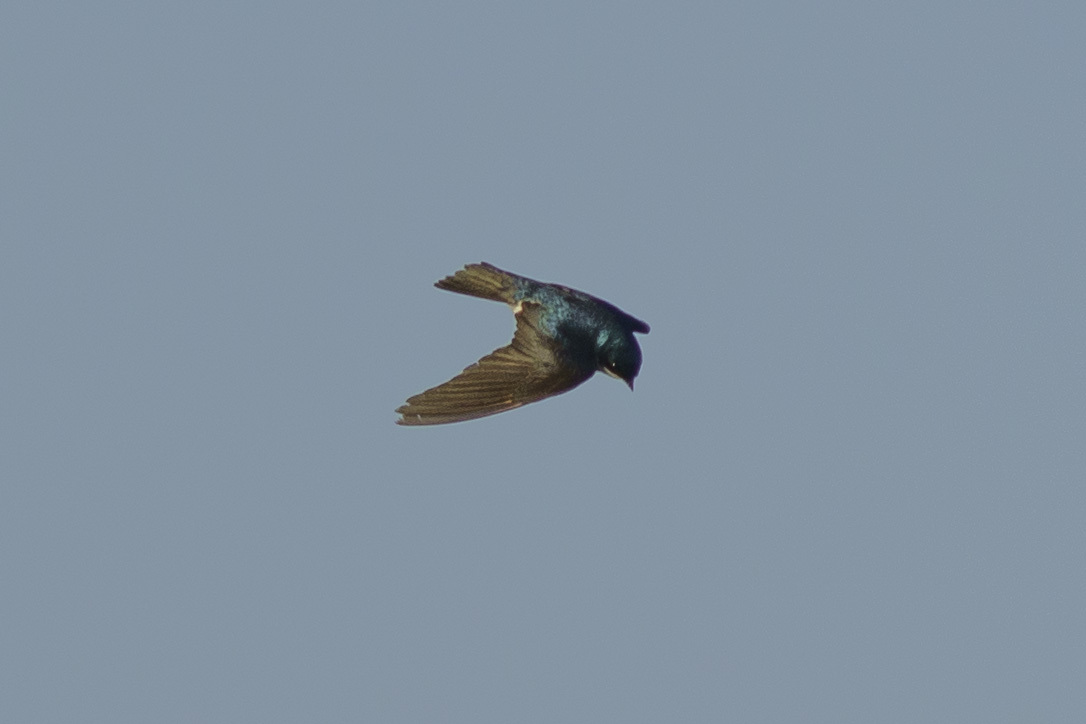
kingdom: Animalia
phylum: Chordata
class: Aves
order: Passeriformes
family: Hirundinidae
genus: Tachycineta
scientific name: Tachycineta bicolor
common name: Tree swallow
